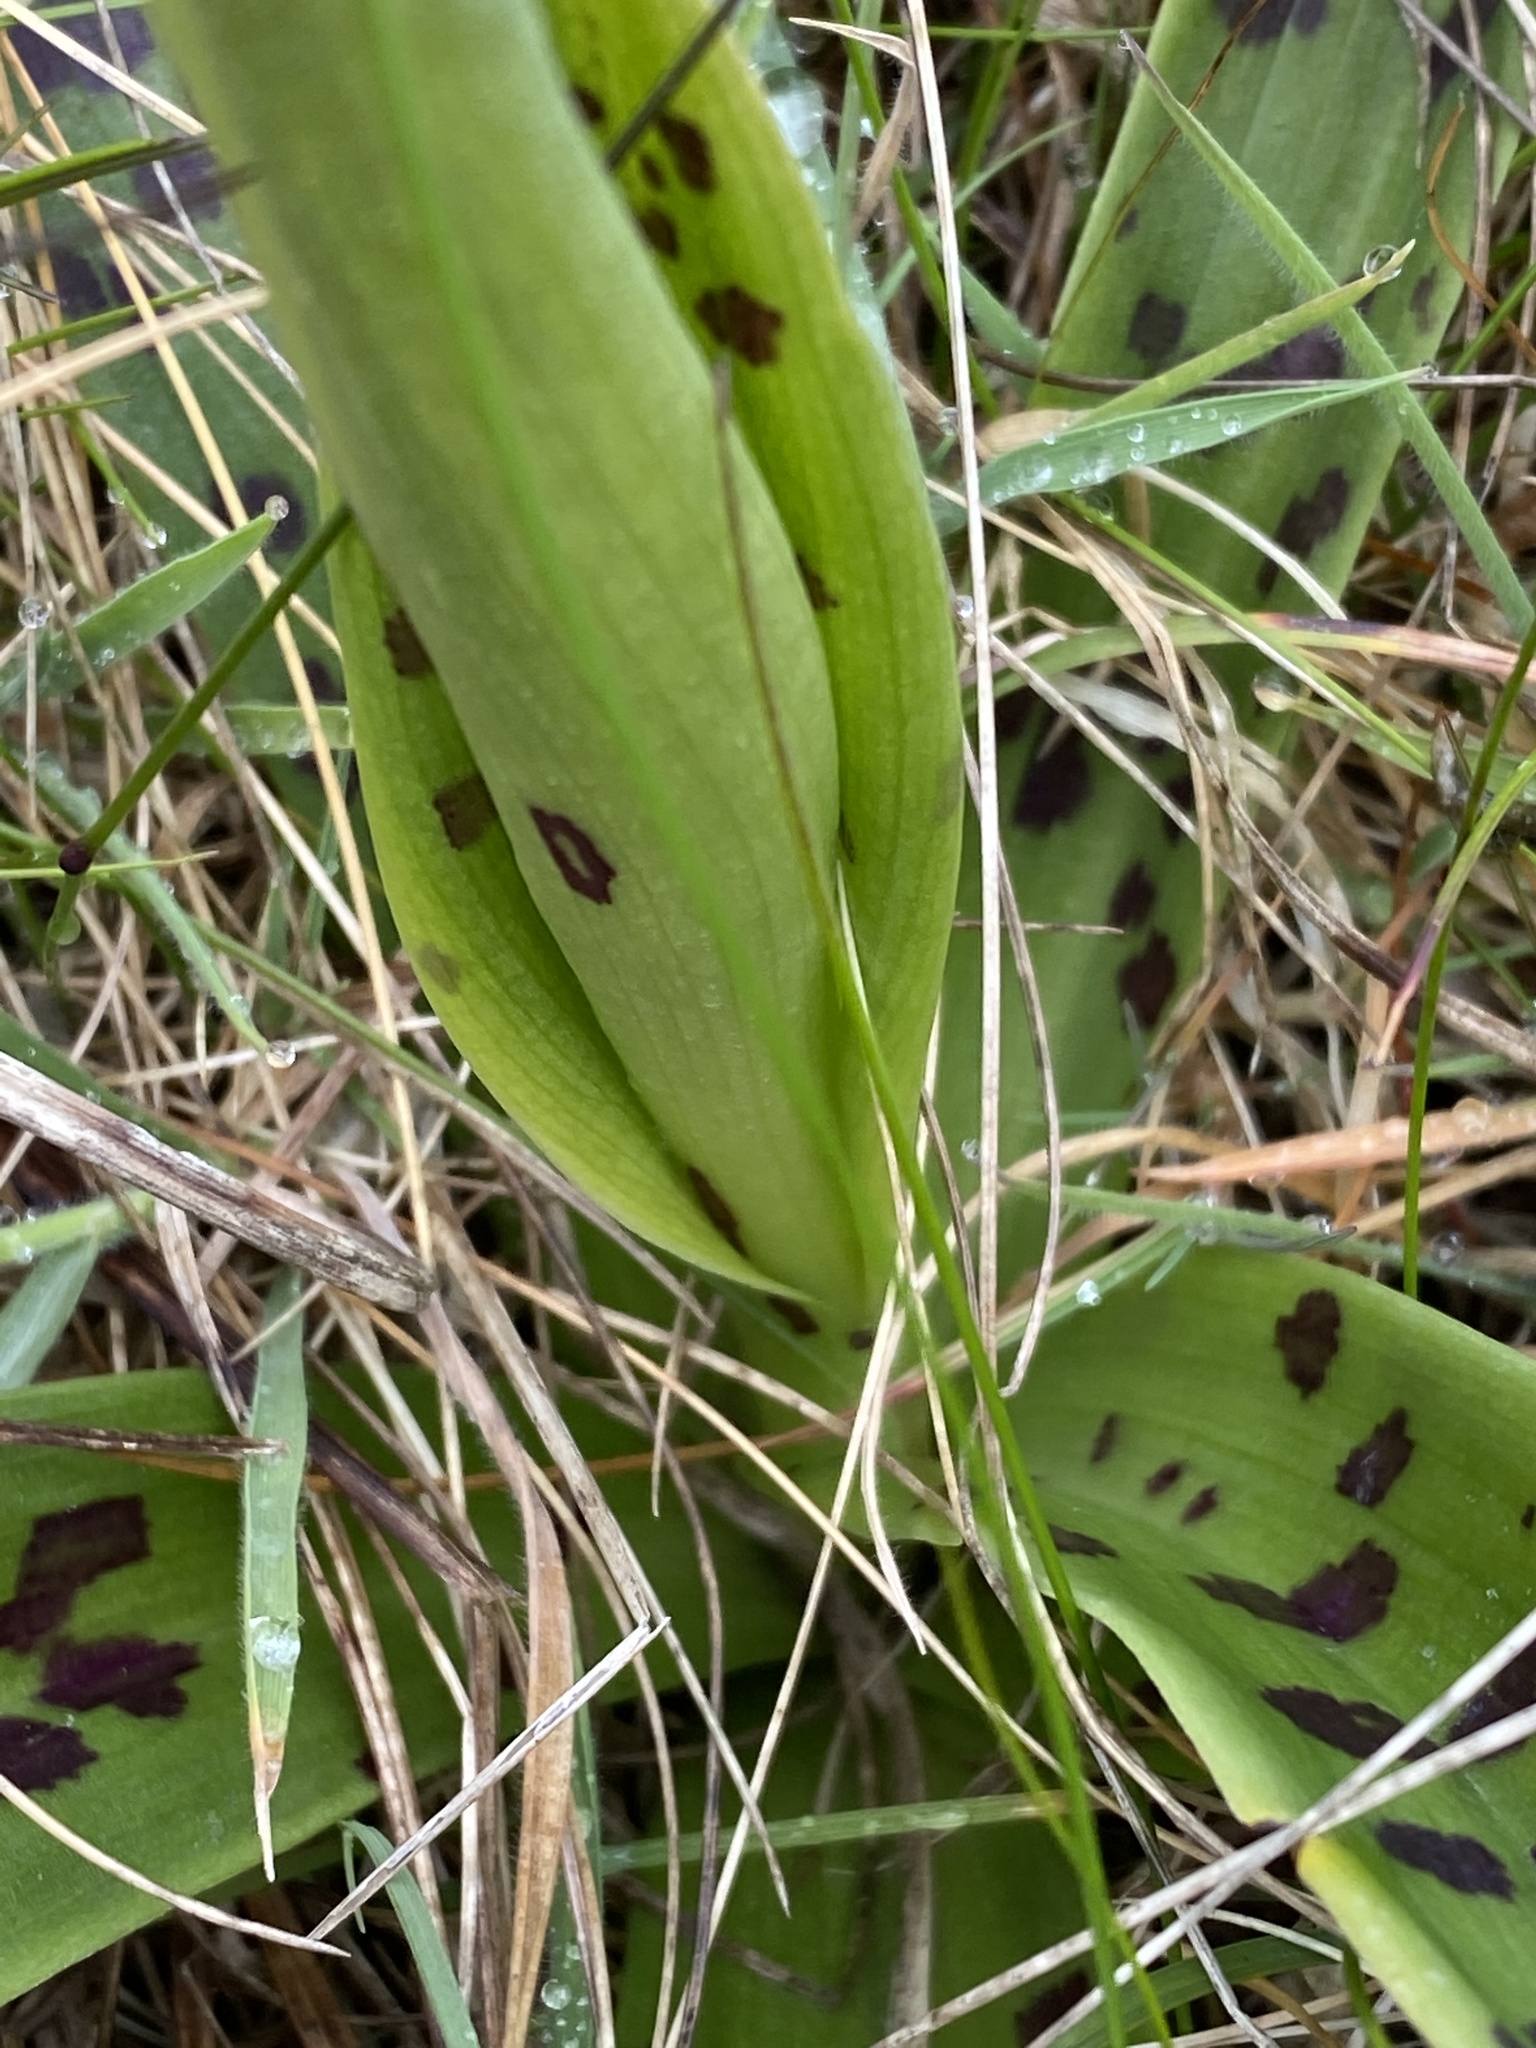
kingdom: Plantae
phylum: Tracheophyta
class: Liliopsida
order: Asparagales
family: Orchidaceae
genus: Orchis
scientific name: Orchis mascula
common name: Early-purple orchid
